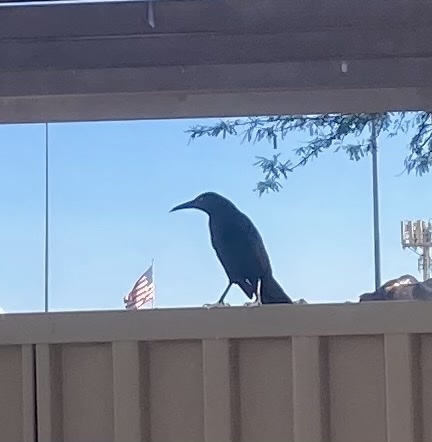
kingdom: Animalia
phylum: Chordata
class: Aves
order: Passeriformes
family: Icteridae
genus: Quiscalus
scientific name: Quiscalus mexicanus
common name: Great-tailed grackle
